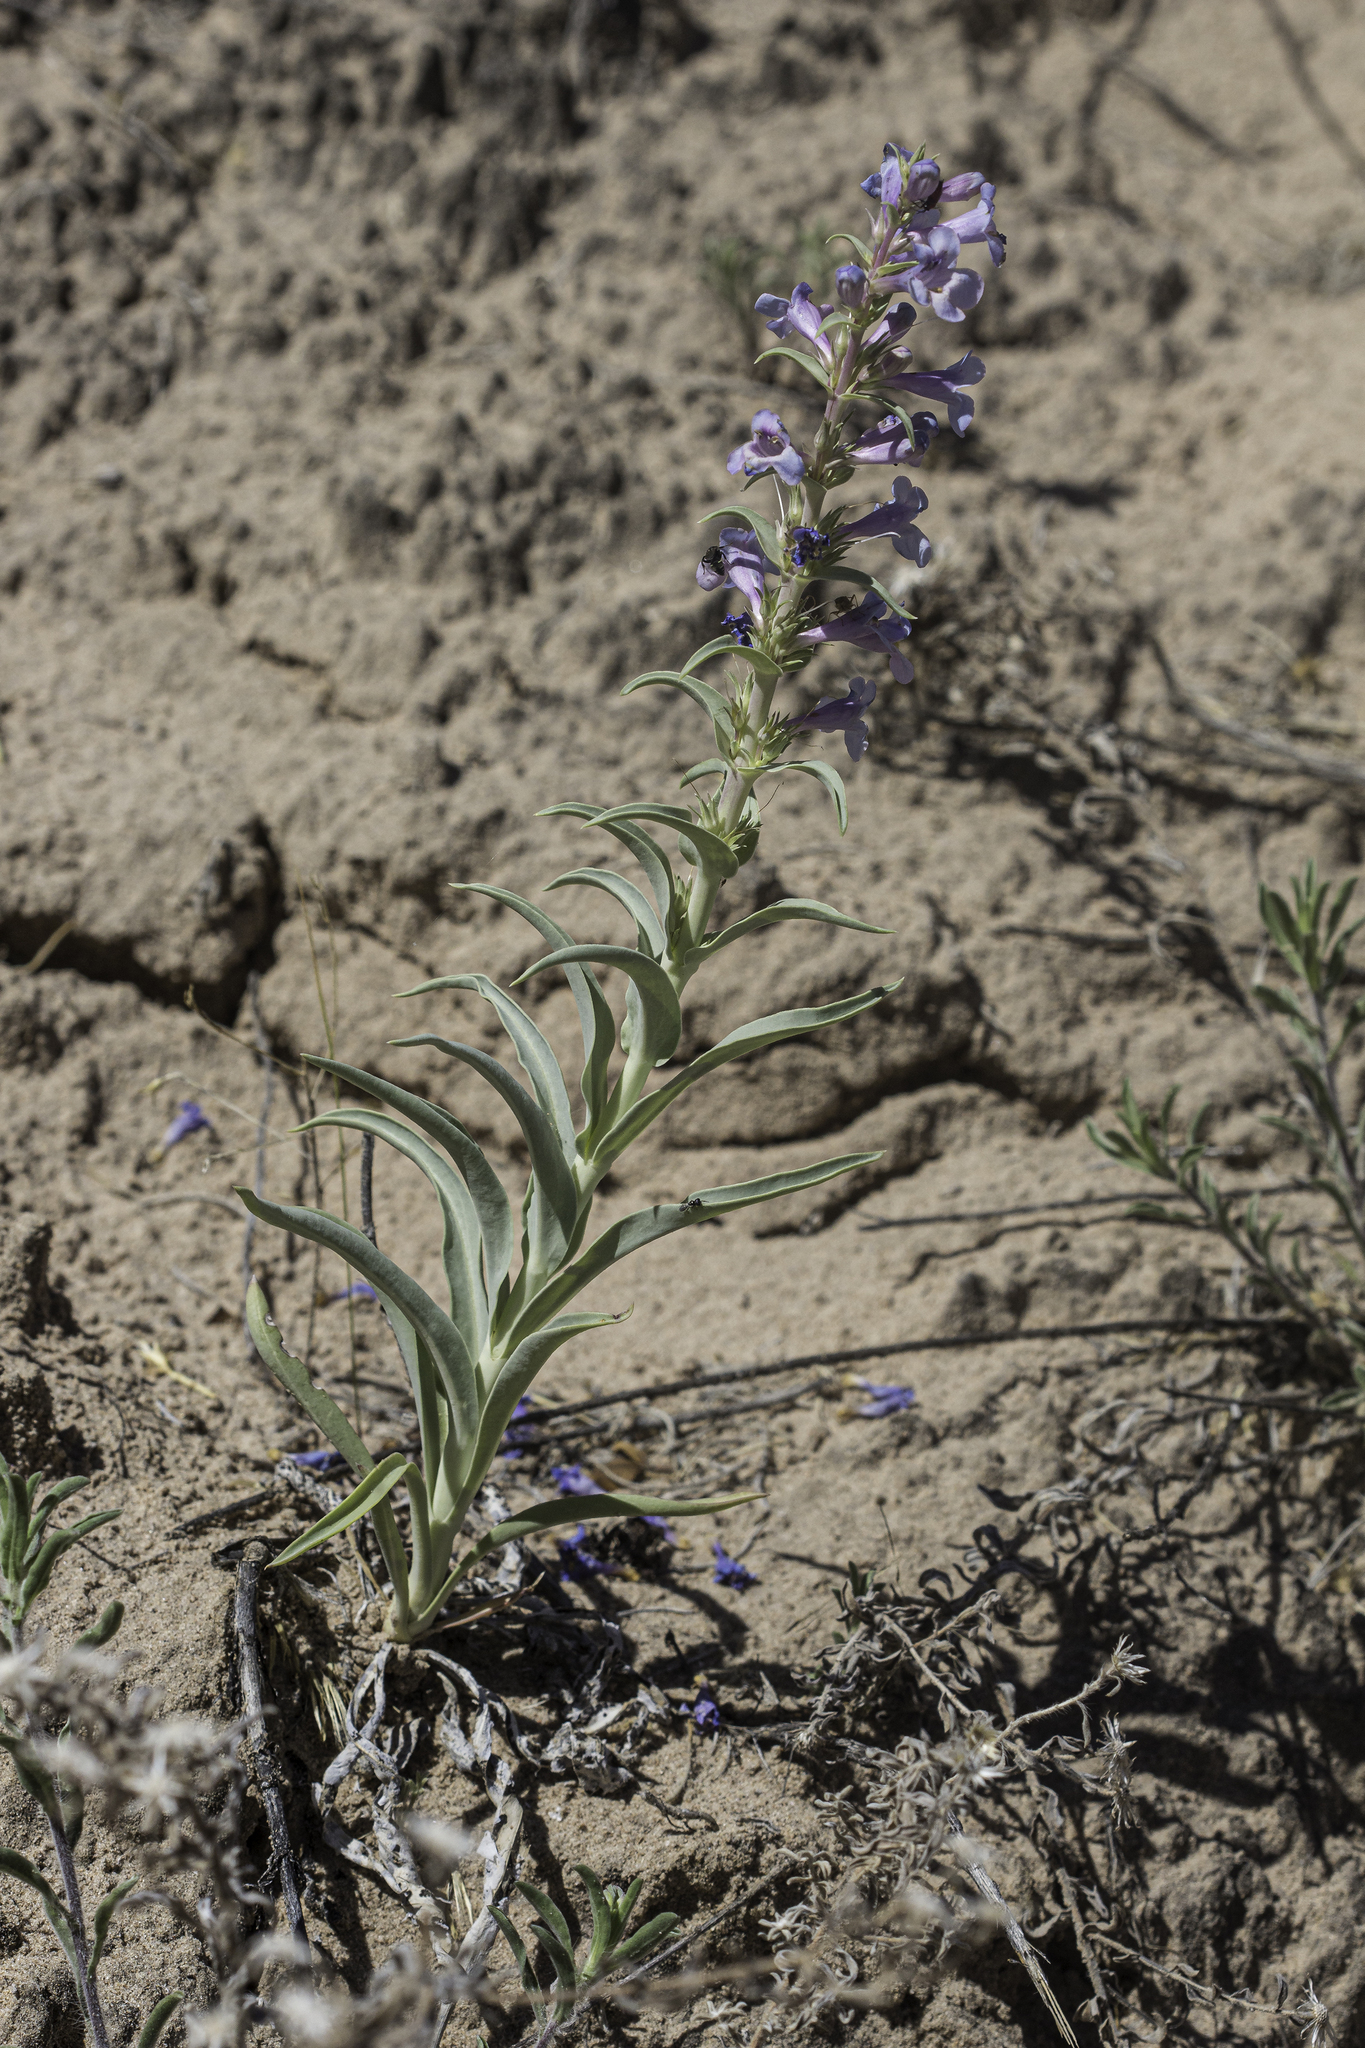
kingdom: Plantae
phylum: Tracheophyta
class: Magnoliopsida
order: Lamiales
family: Plantaginaceae
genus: Penstemon
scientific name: Penstemon angustifolius
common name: Narrow beardtongue
